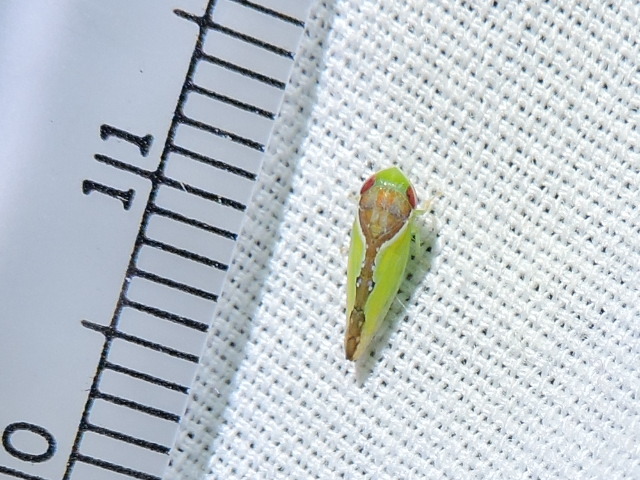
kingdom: Animalia
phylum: Arthropoda
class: Insecta
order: Hemiptera
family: Cicadellidae
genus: Omansobara ing
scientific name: Omansobara ing Omansobara palliolata
